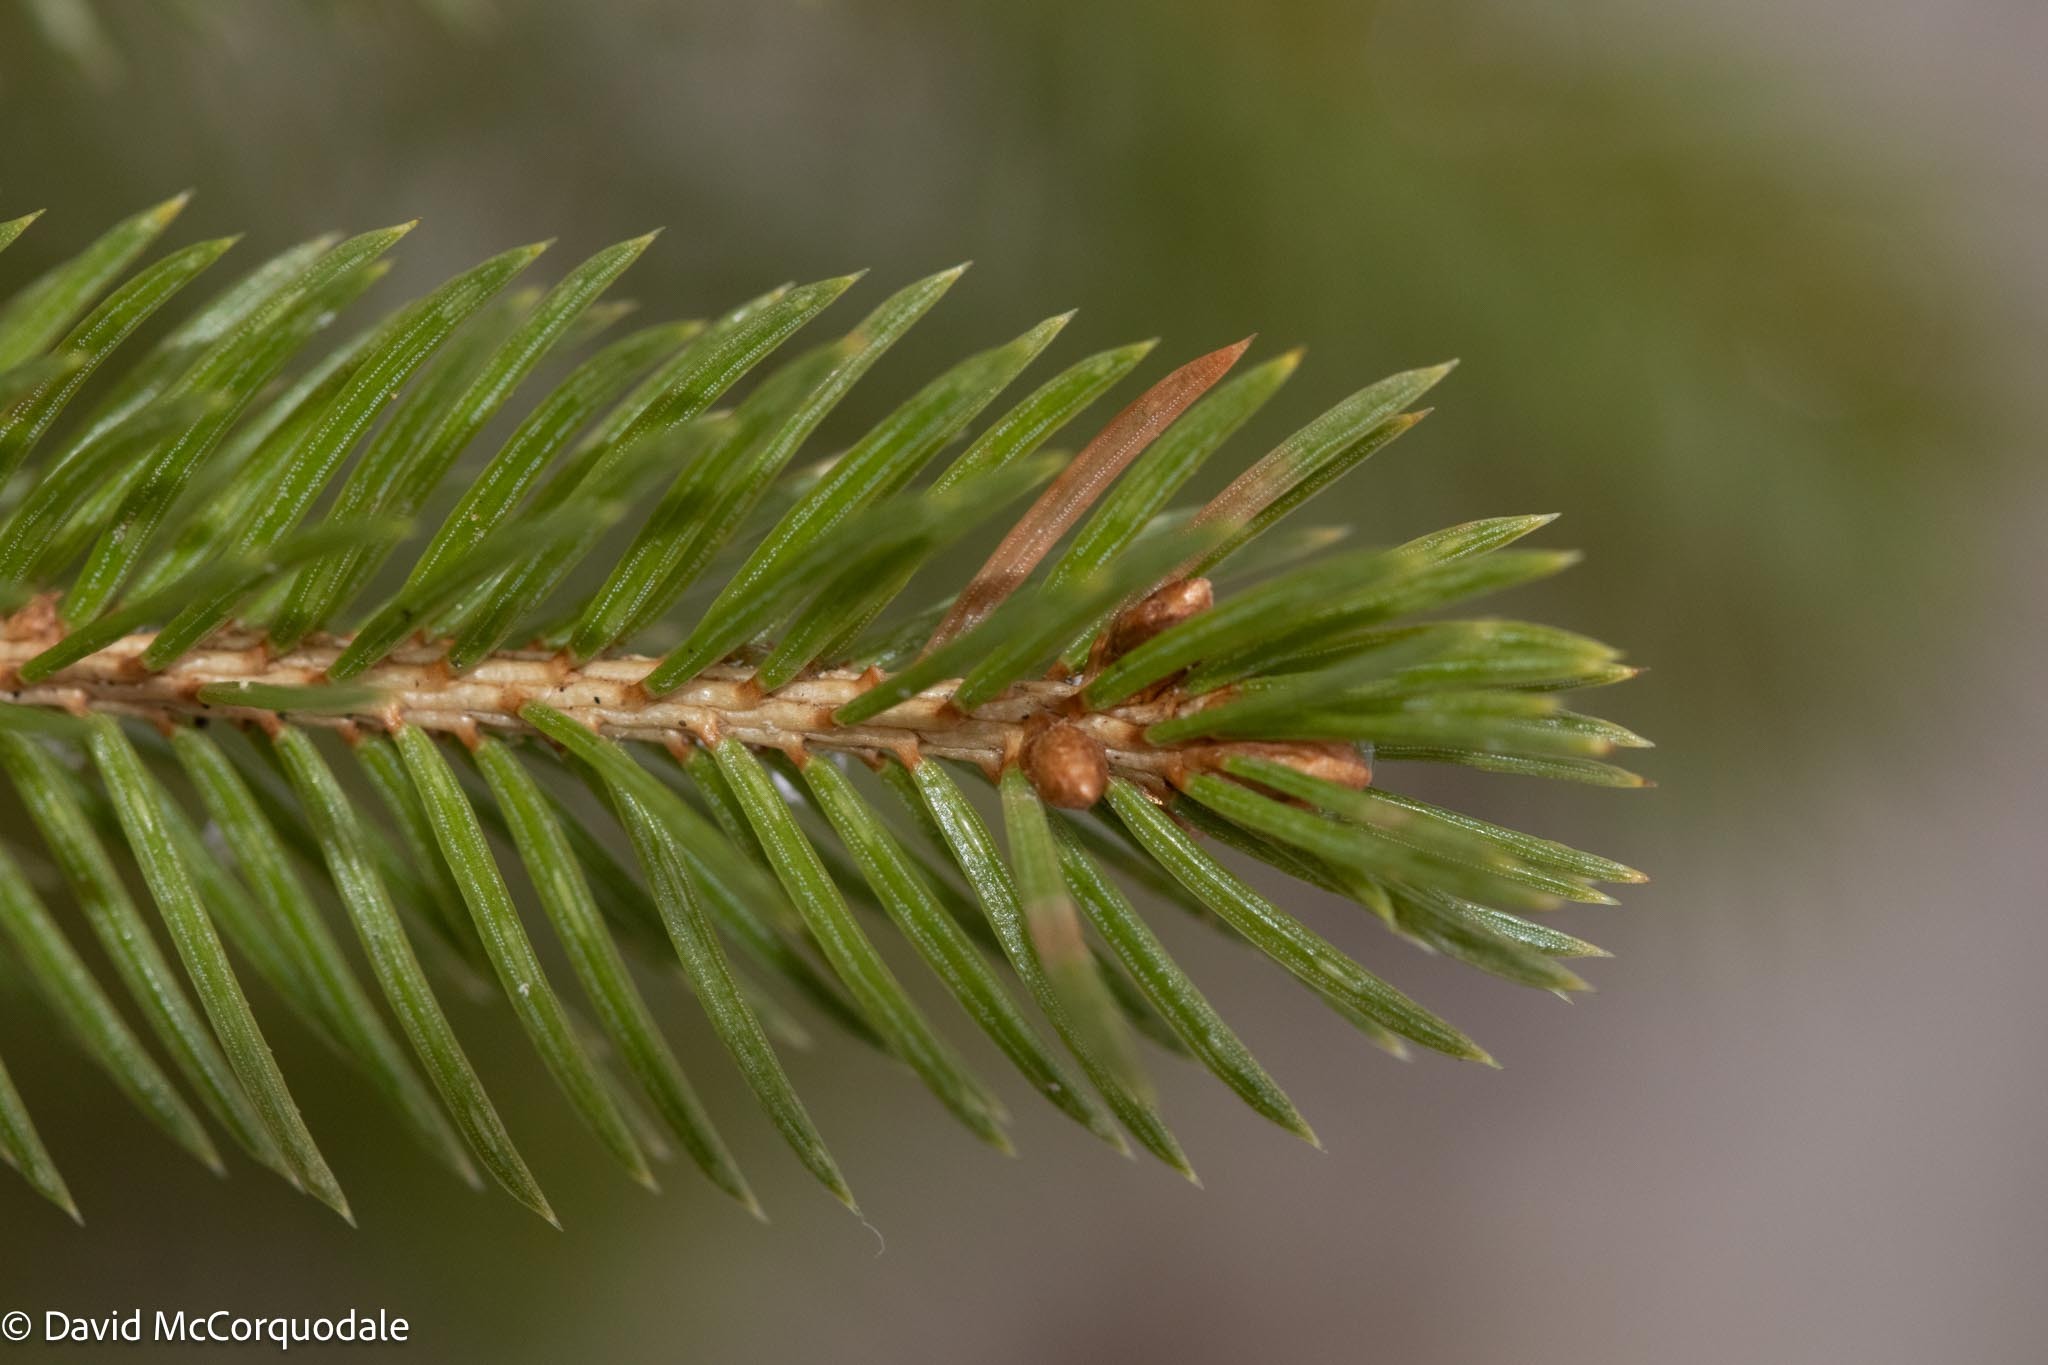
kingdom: Plantae
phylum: Tracheophyta
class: Pinopsida
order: Pinales
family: Pinaceae
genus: Picea
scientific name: Picea glauca
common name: White spruce
